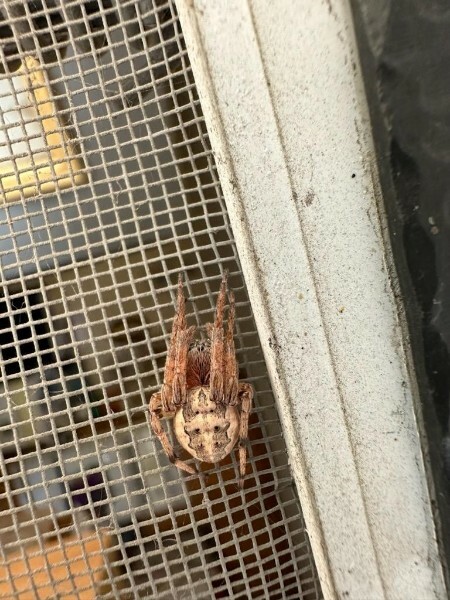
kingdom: Animalia
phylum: Arthropoda
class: Arachnida
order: Araneae
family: Araneidae
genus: Larinioides
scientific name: Larinioides cornutus
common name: Furrow orbweaver
